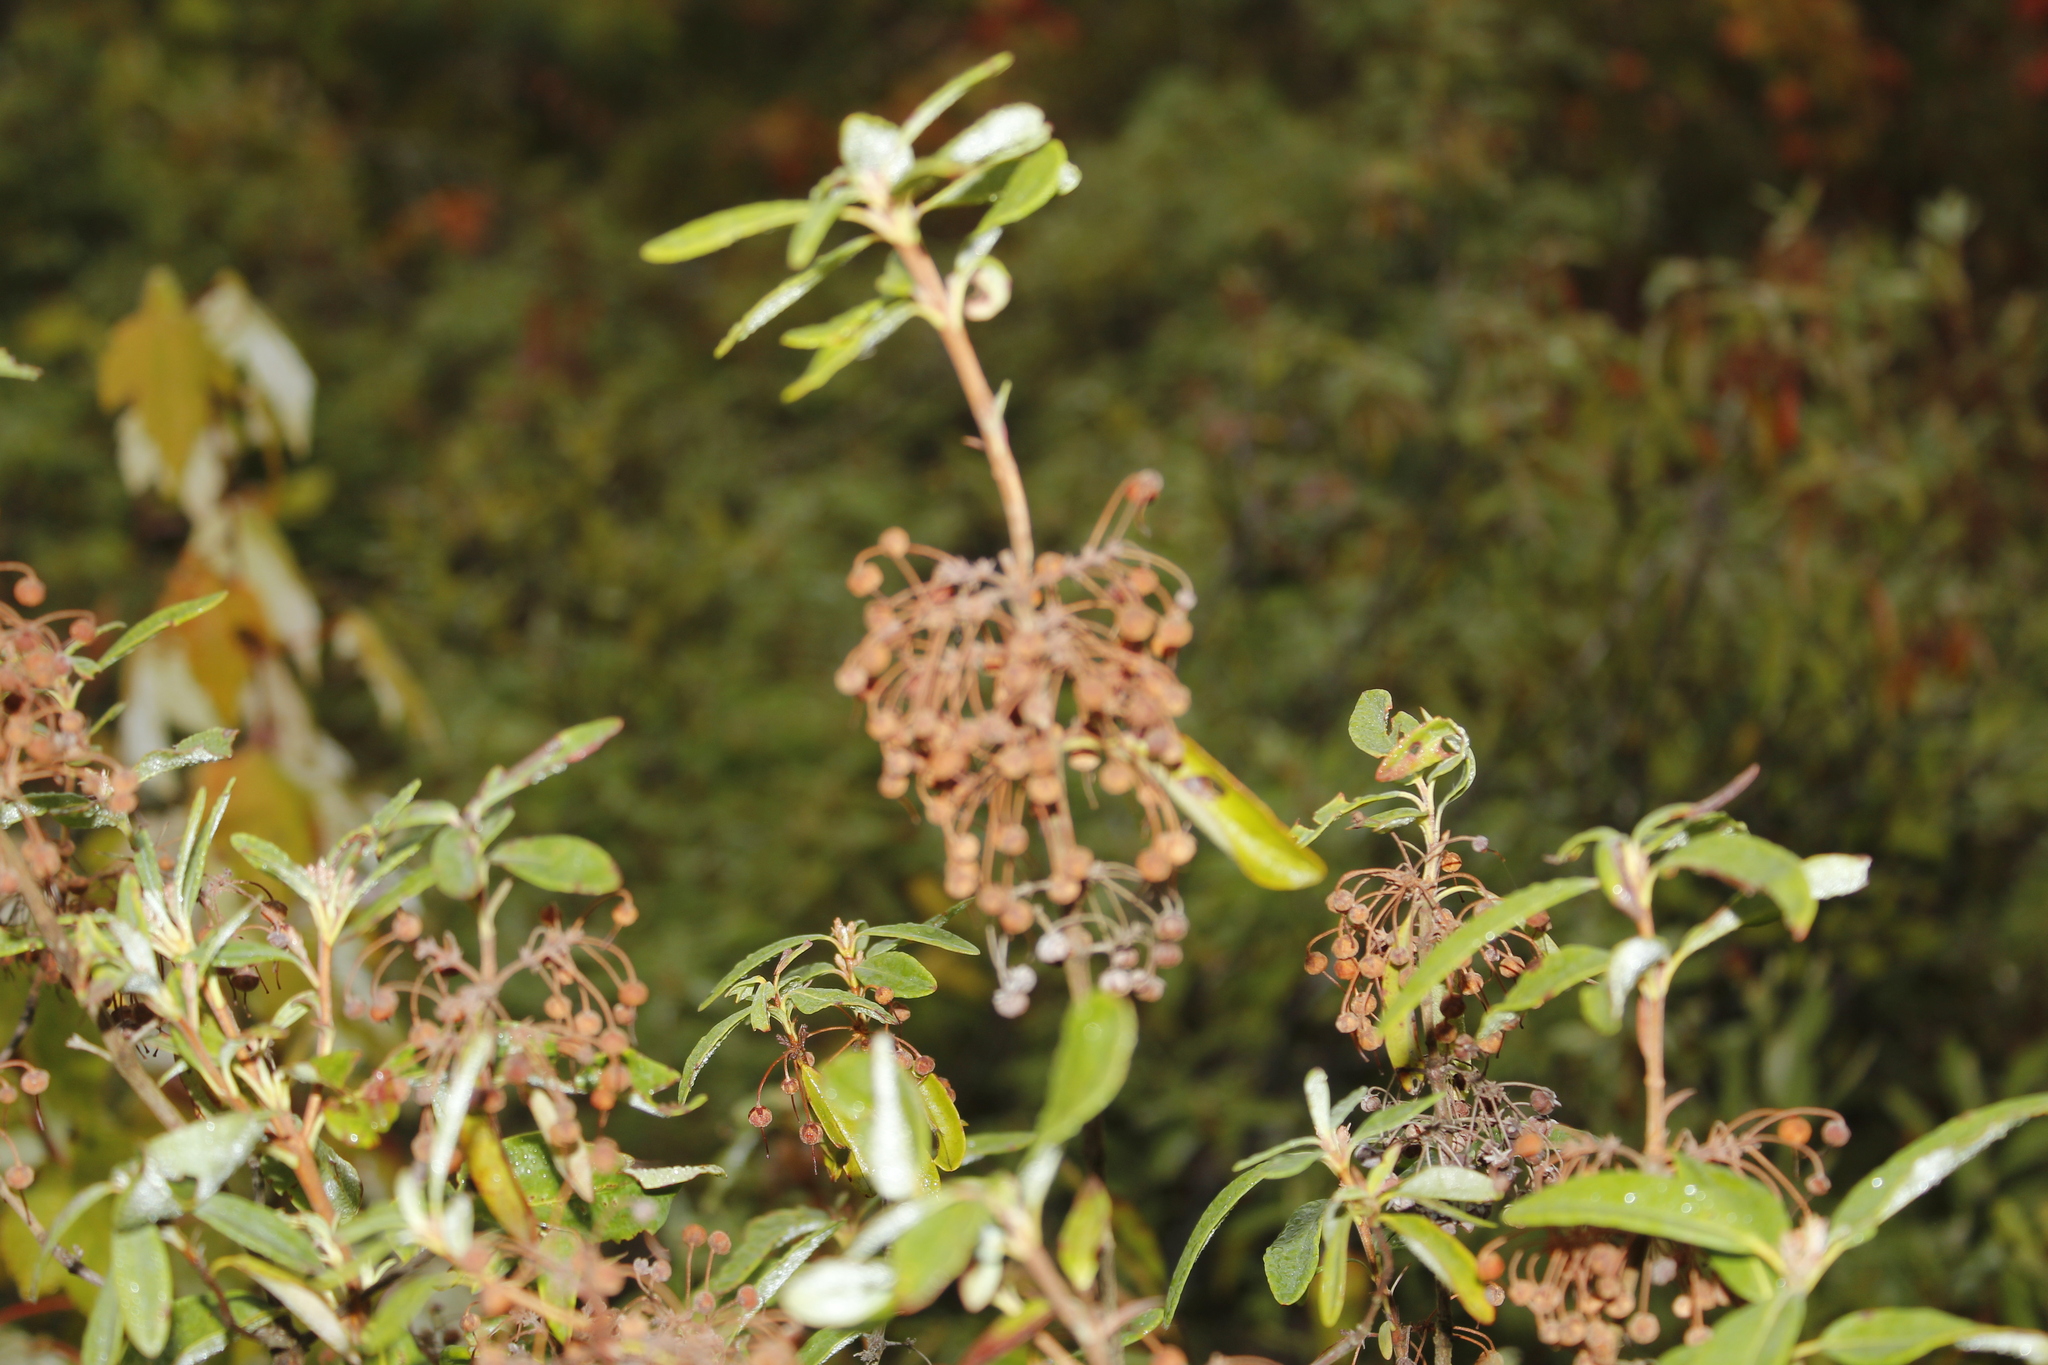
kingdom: Plantae
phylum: Tracheophyta
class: Magnoliopsida
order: Ericales
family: Ericaceae
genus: Kalmia
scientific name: Kalmia angustifolia
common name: Sheep-laurel
